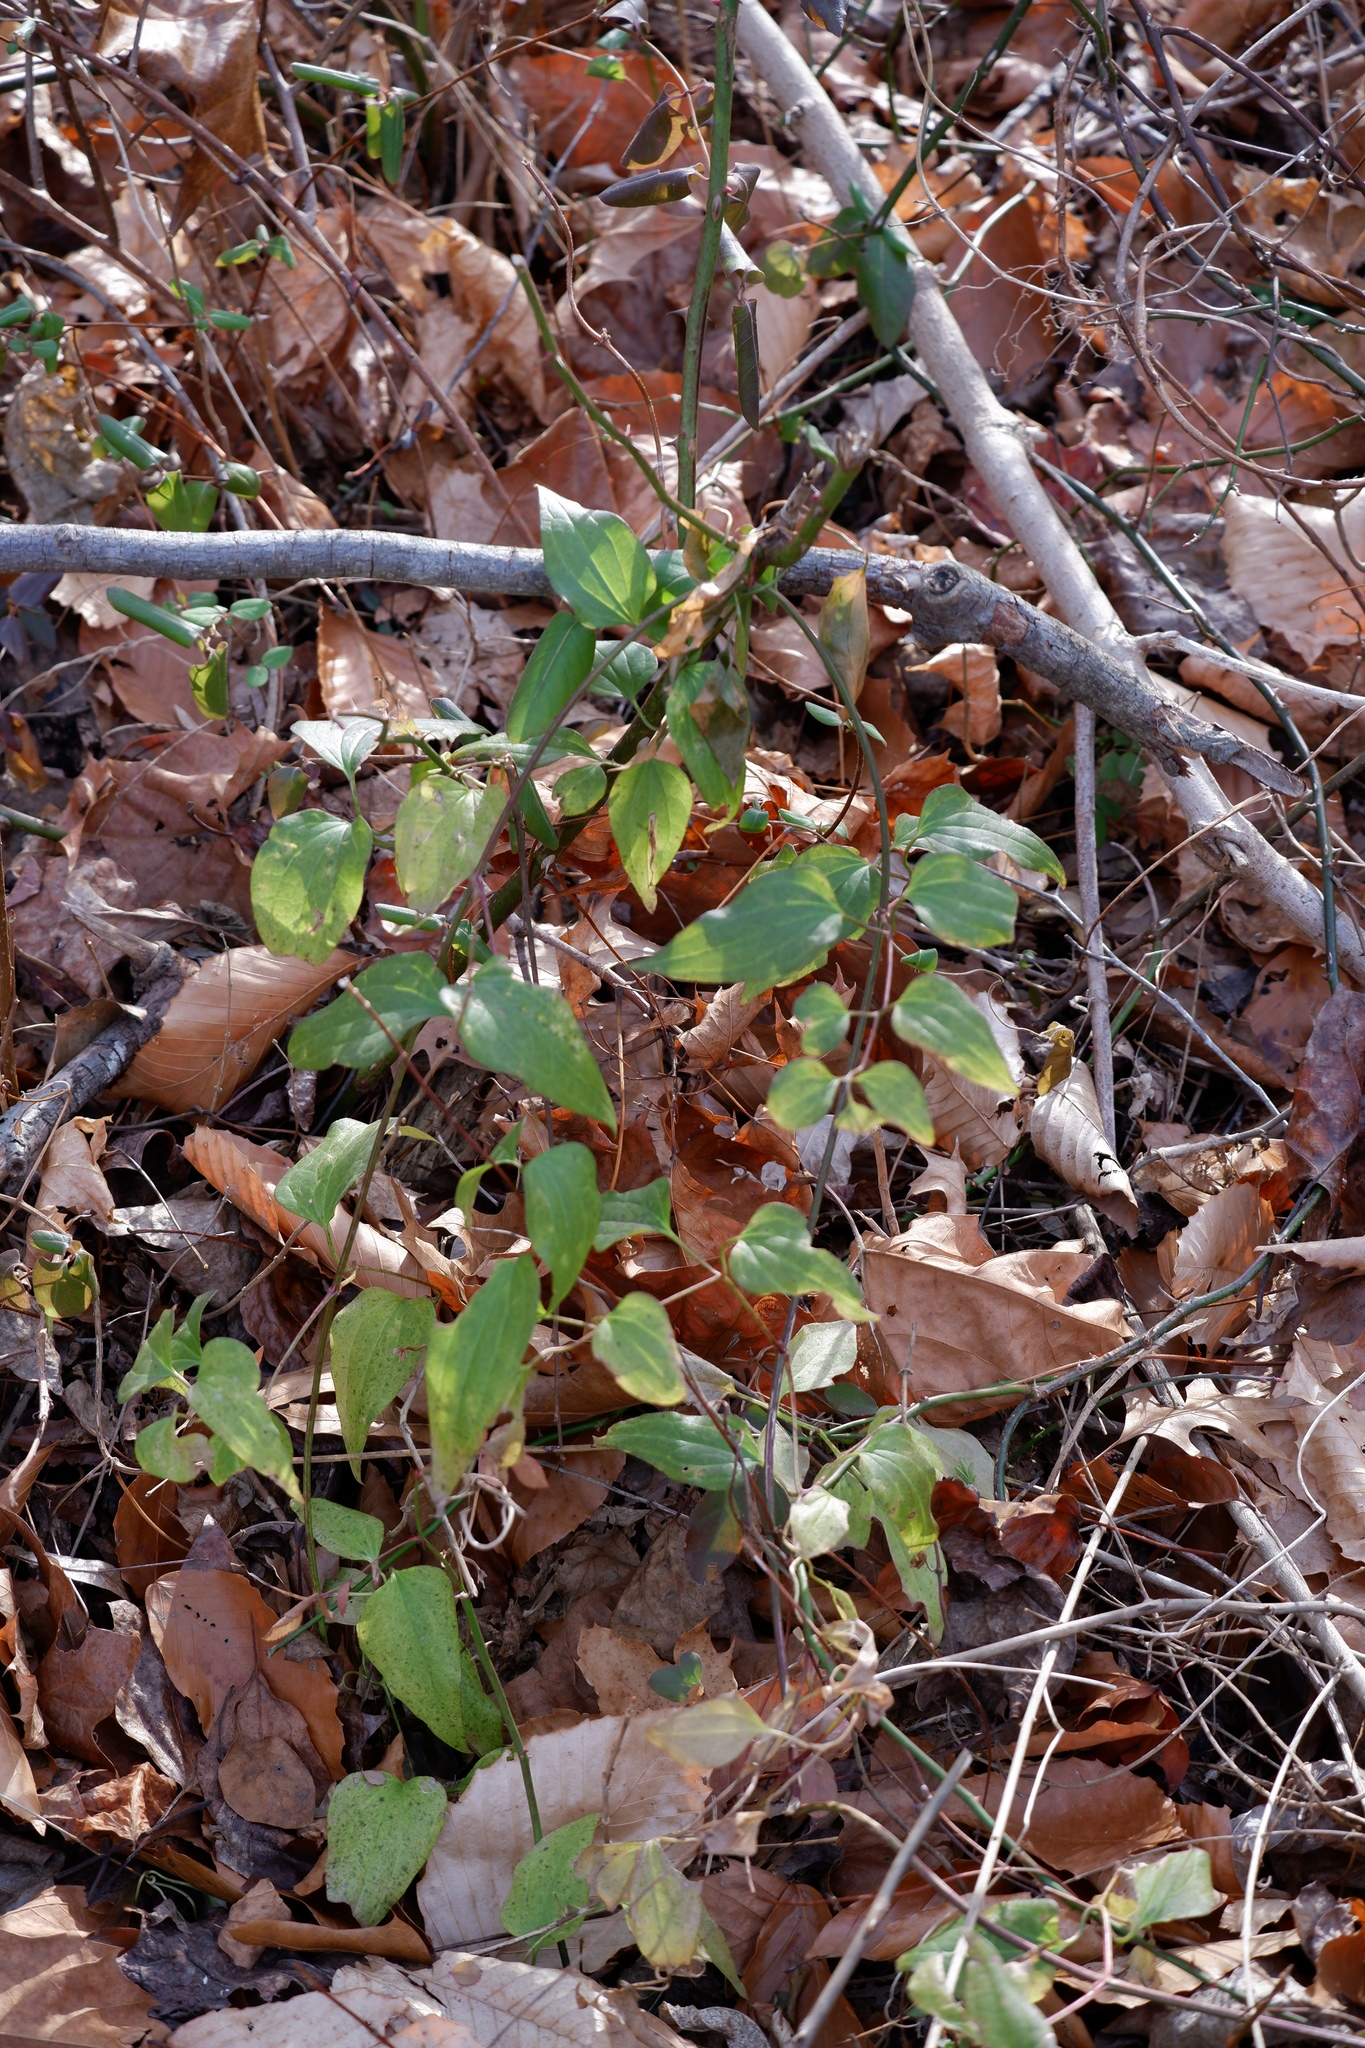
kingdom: Plantae
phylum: Tracheophyta
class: Magnoliopsida
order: Ranunculales
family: Ranunculaceae
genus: Clematis
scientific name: Clematis terniflora
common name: Sweet autumn clematis
